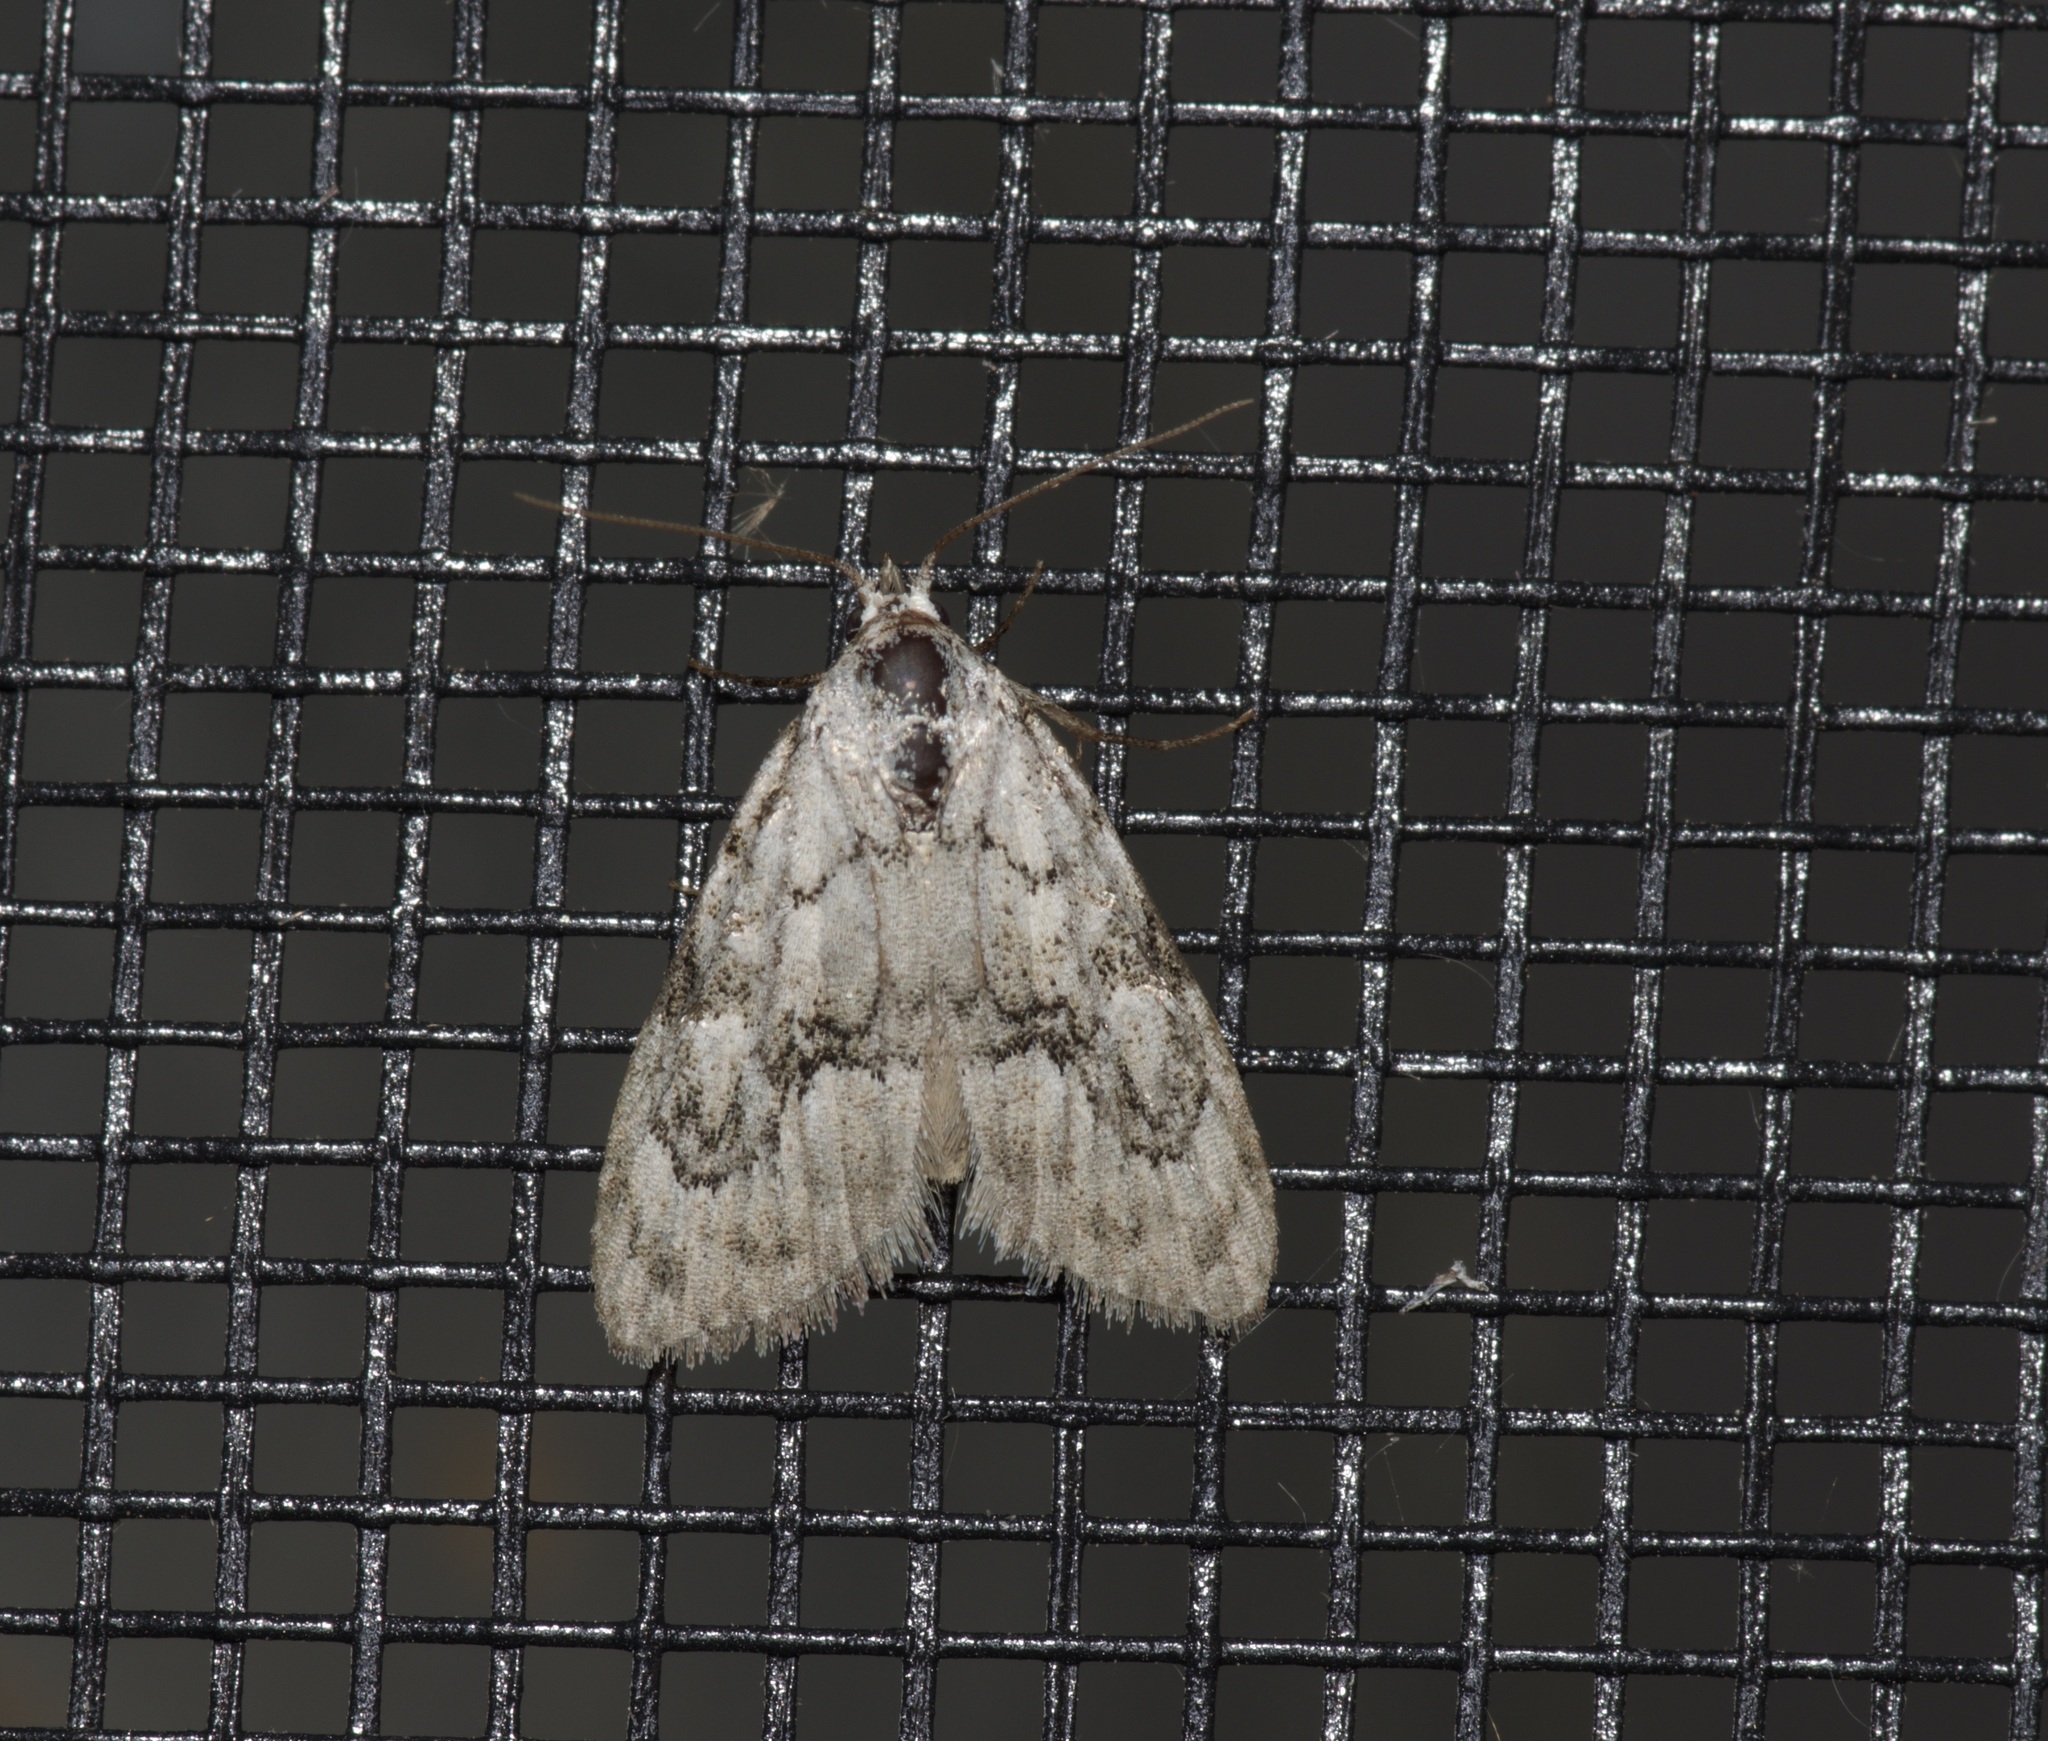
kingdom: Animalia
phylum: Arthropoda
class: Insecta
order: Lepidoptera
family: Nolidae
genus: Meganola
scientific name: Meganola minuscula
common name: Confused meganola moth
